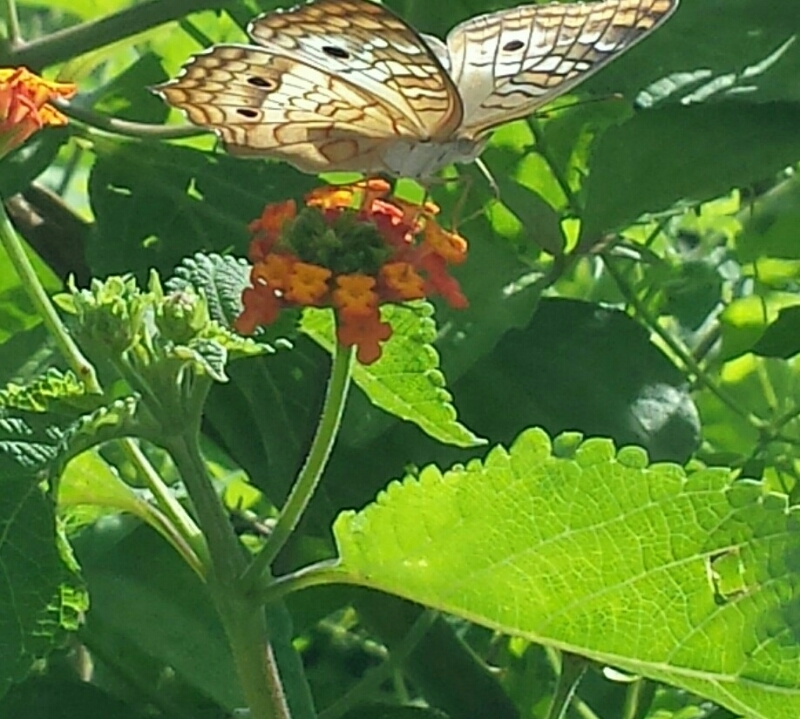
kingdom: Plantae
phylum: Tracheophyta
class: Magnoliopsida
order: Lamiales
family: Verbenaceae
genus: Lantana
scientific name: Lantana camara
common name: Lantana
